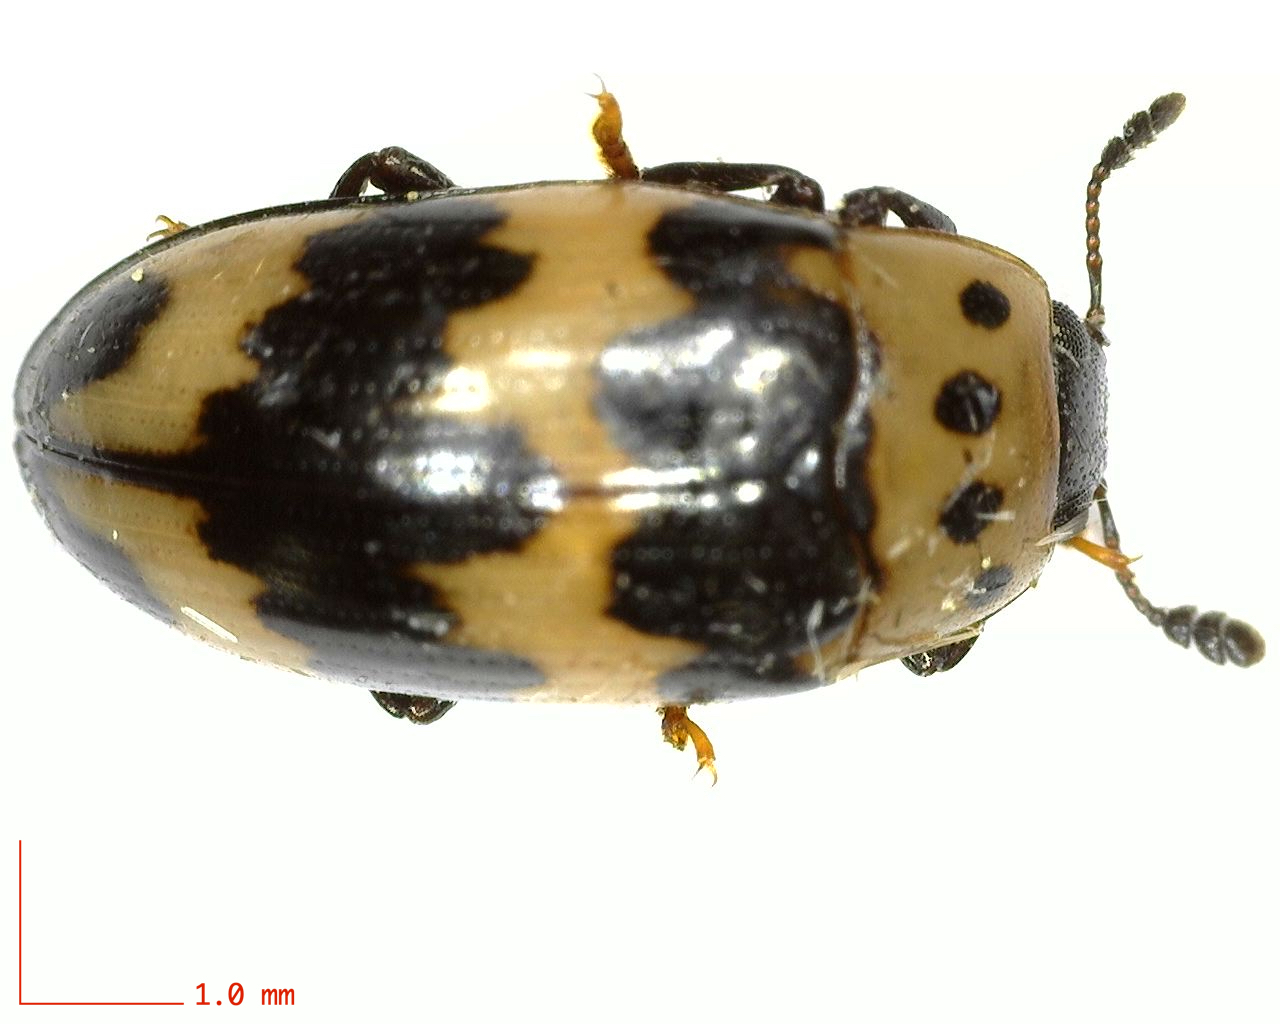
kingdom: Animalia
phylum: Arthropoda
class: Insecta
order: Coleoptera
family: Erotylidae
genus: Ischyrus
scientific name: Ischyrus quadripunctatus
